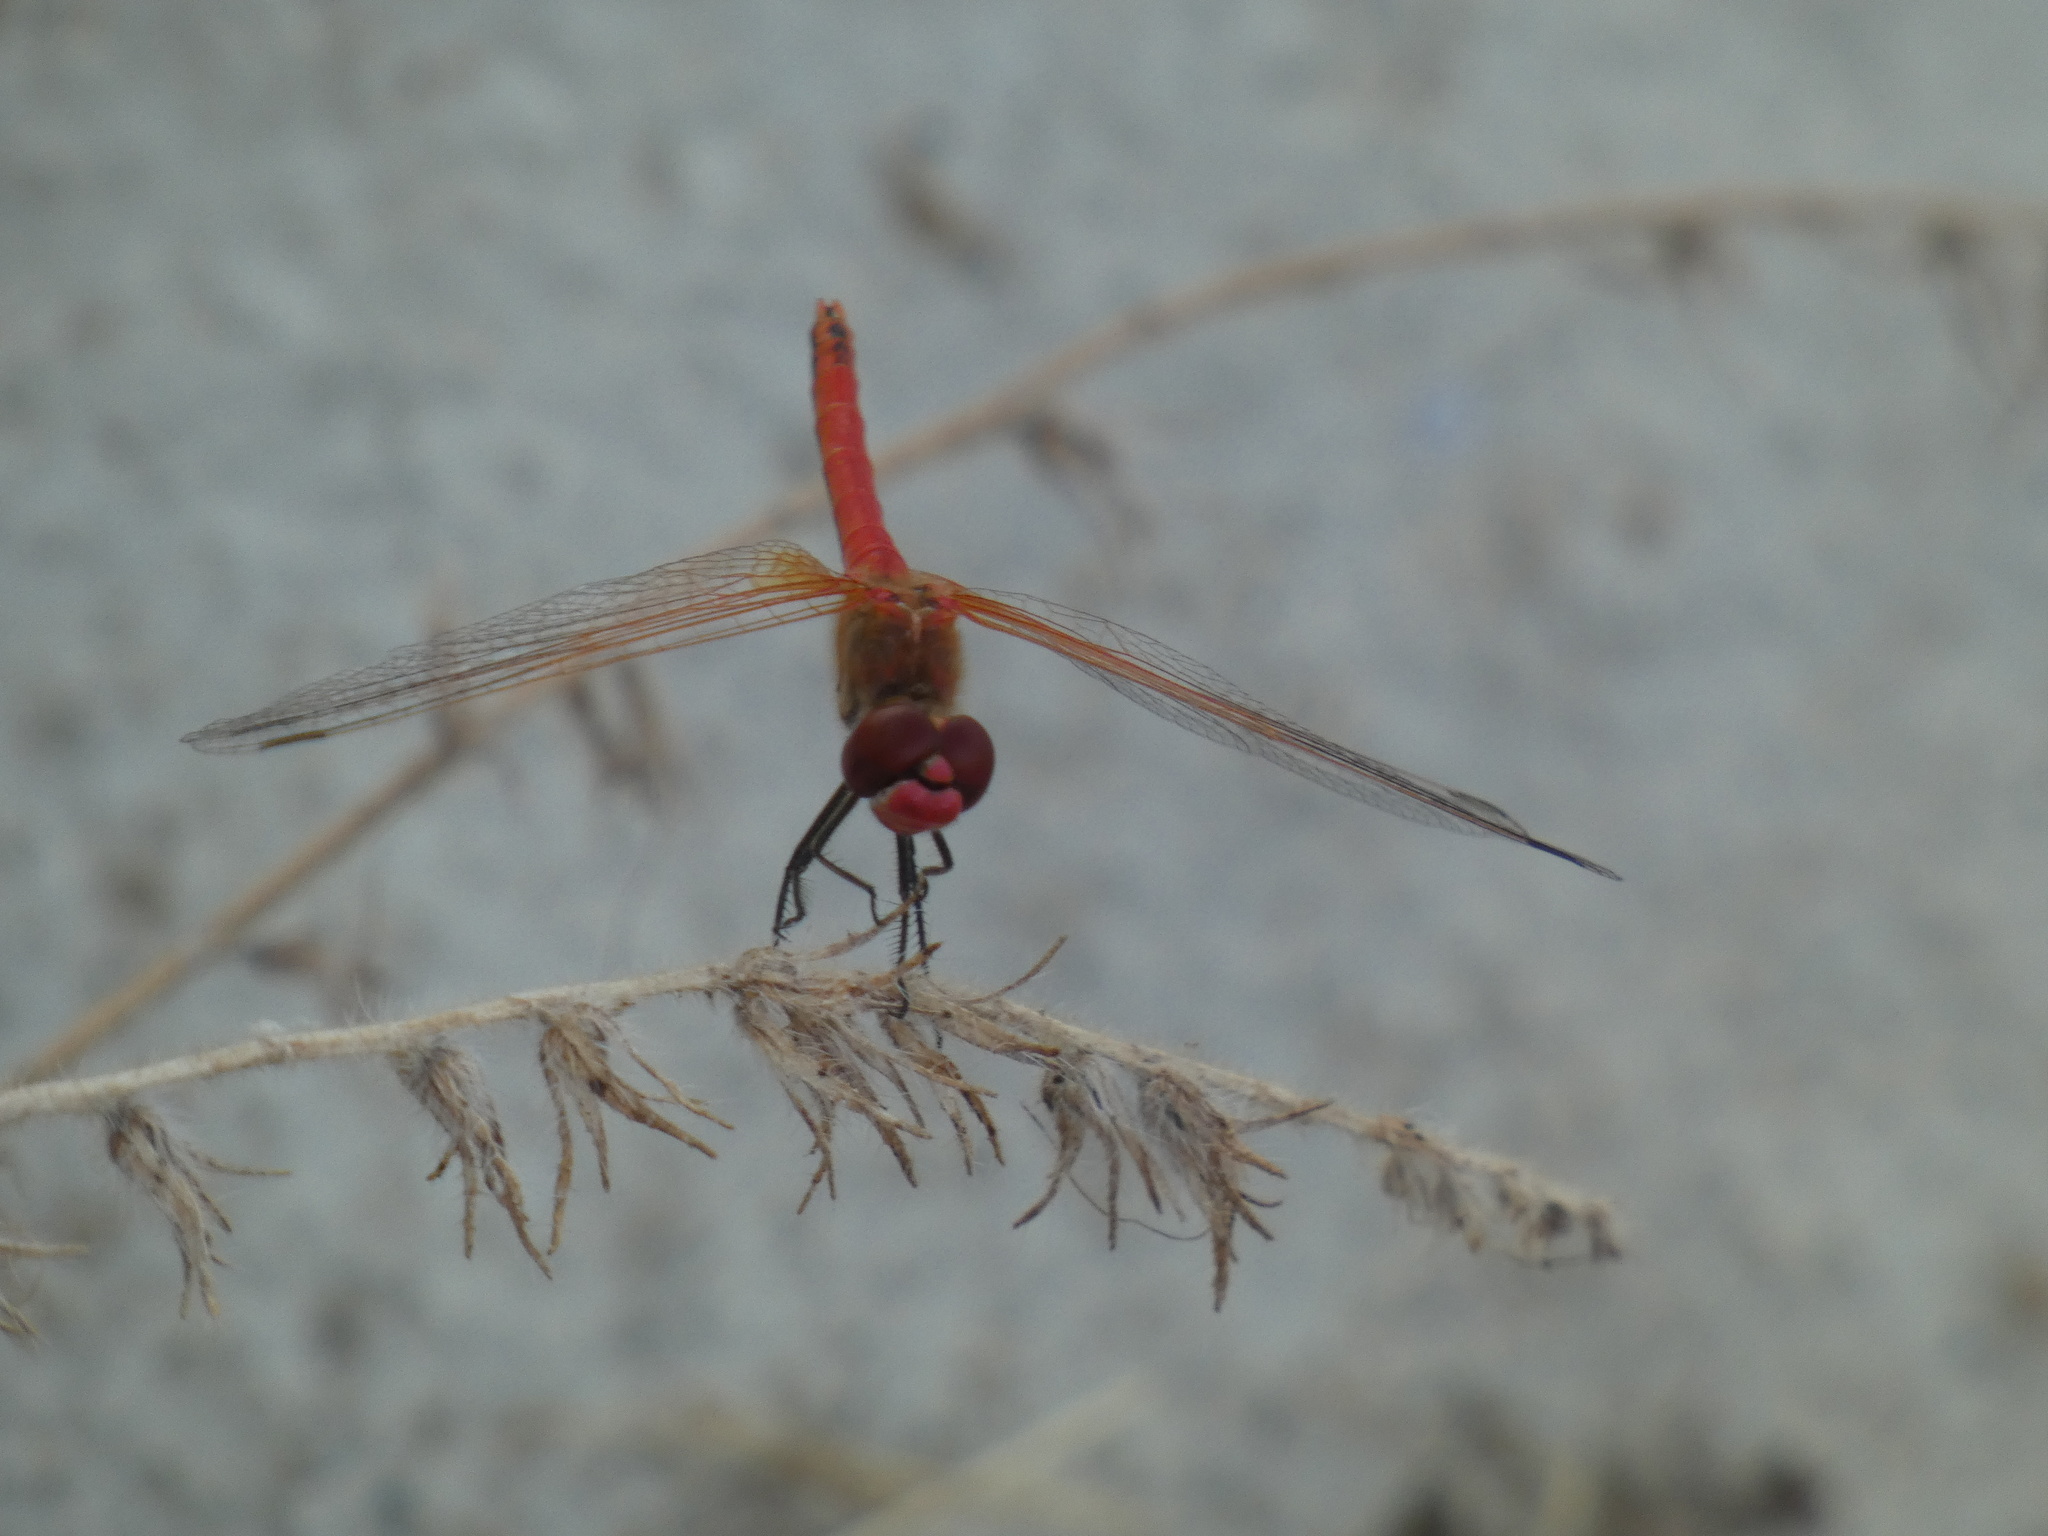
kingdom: Animalia
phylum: Arthropoda
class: Insecta
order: Odonata
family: Libellulidae
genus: Sympetrum
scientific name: Sympetrum fonscolombii
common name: Red-veined darter
